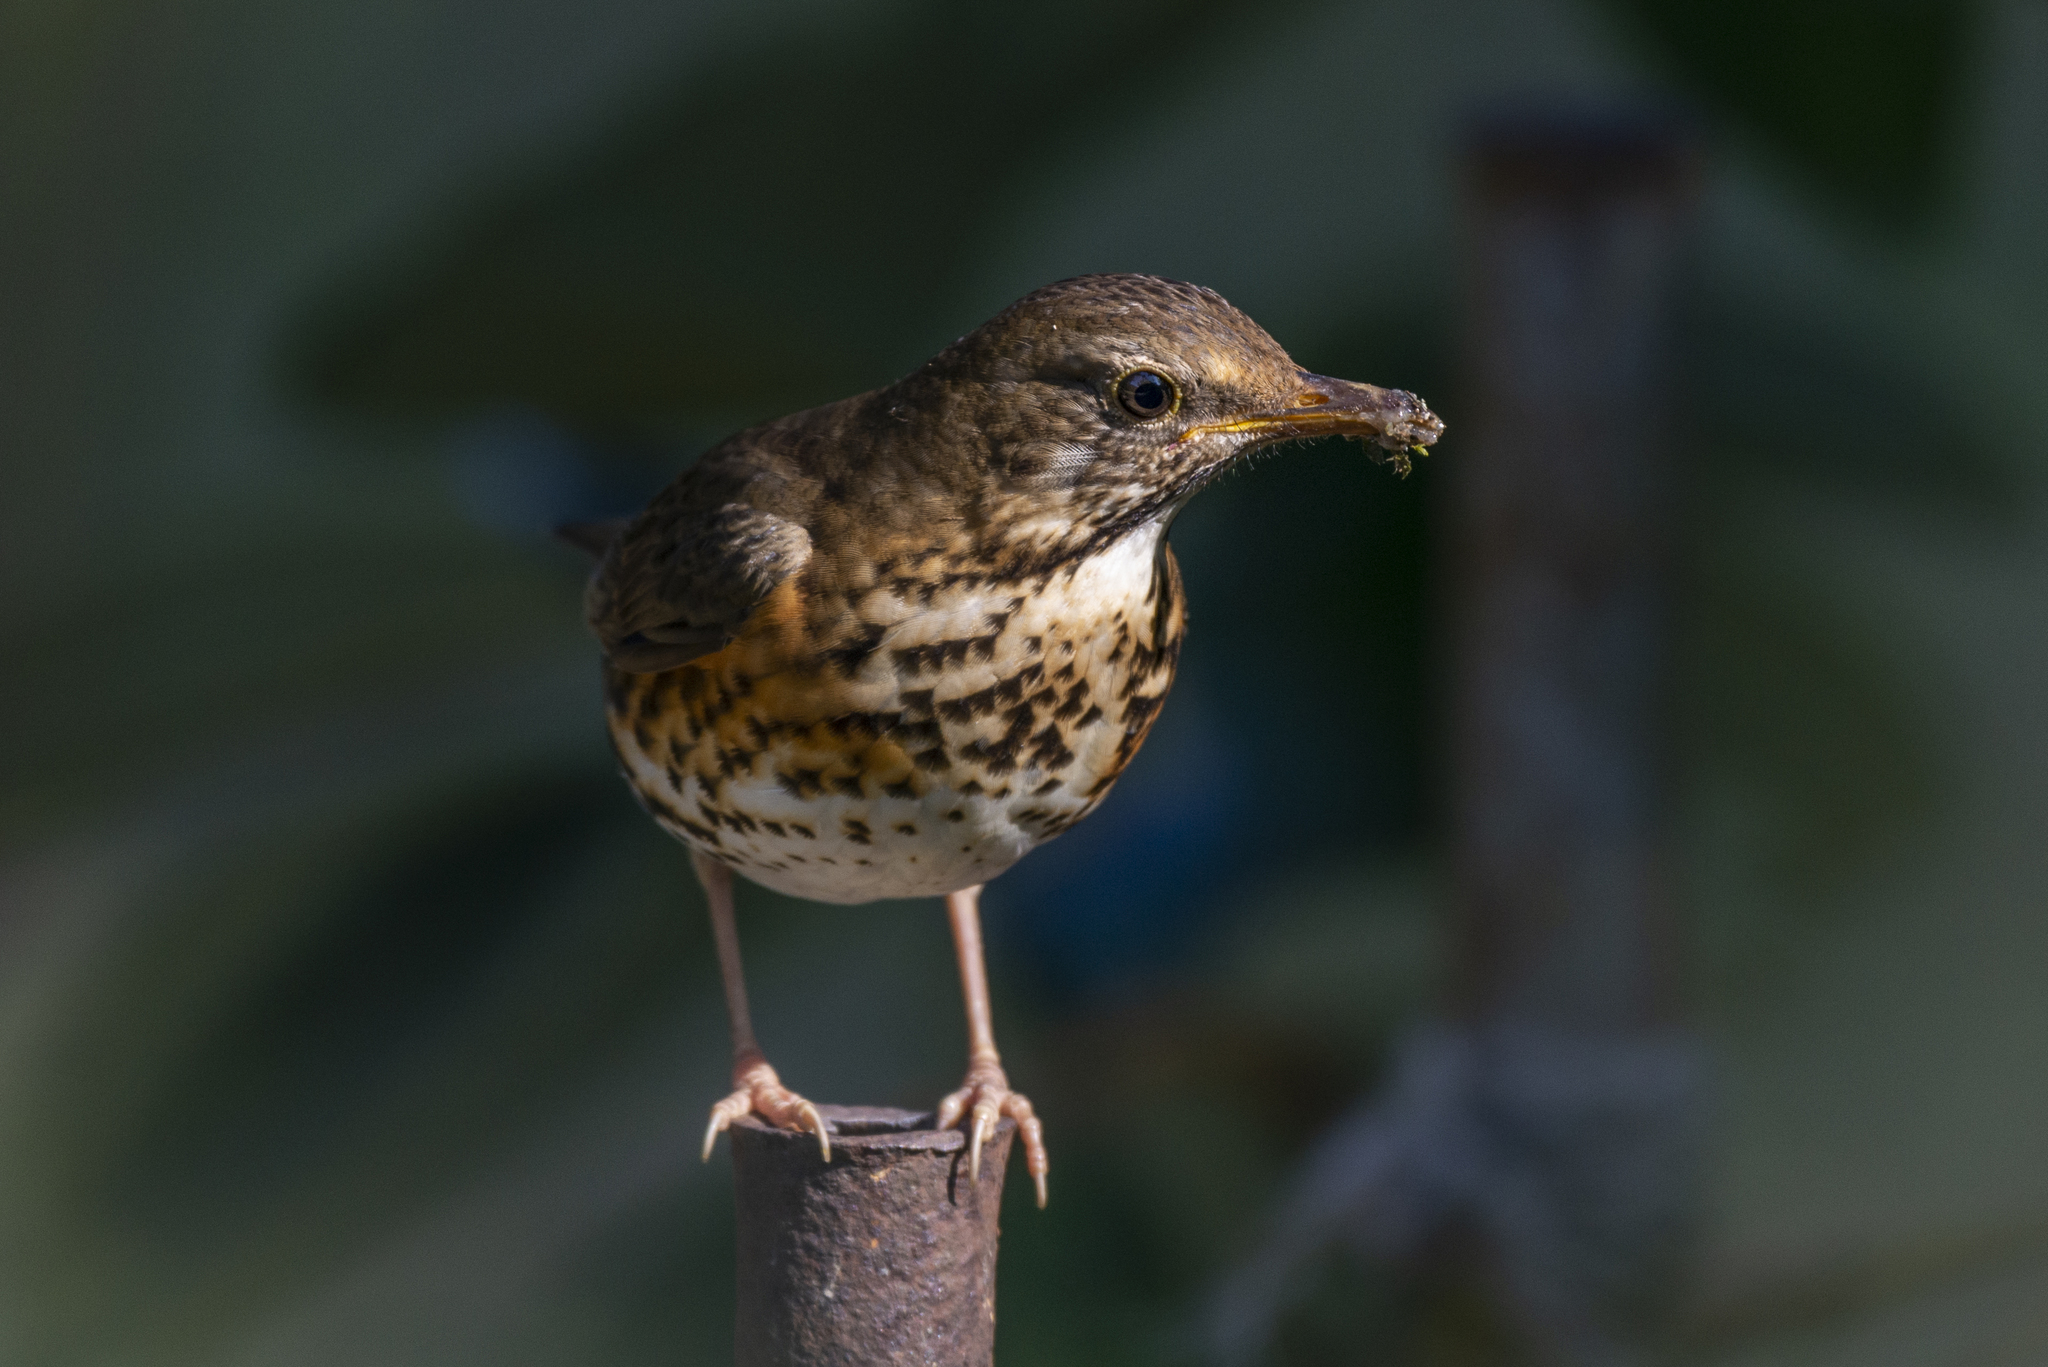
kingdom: Animalia
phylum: Chordata
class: Aves
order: Passeriformes
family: Turdidae
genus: Turdus
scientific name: Turdus cardis
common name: Japanese thrush
